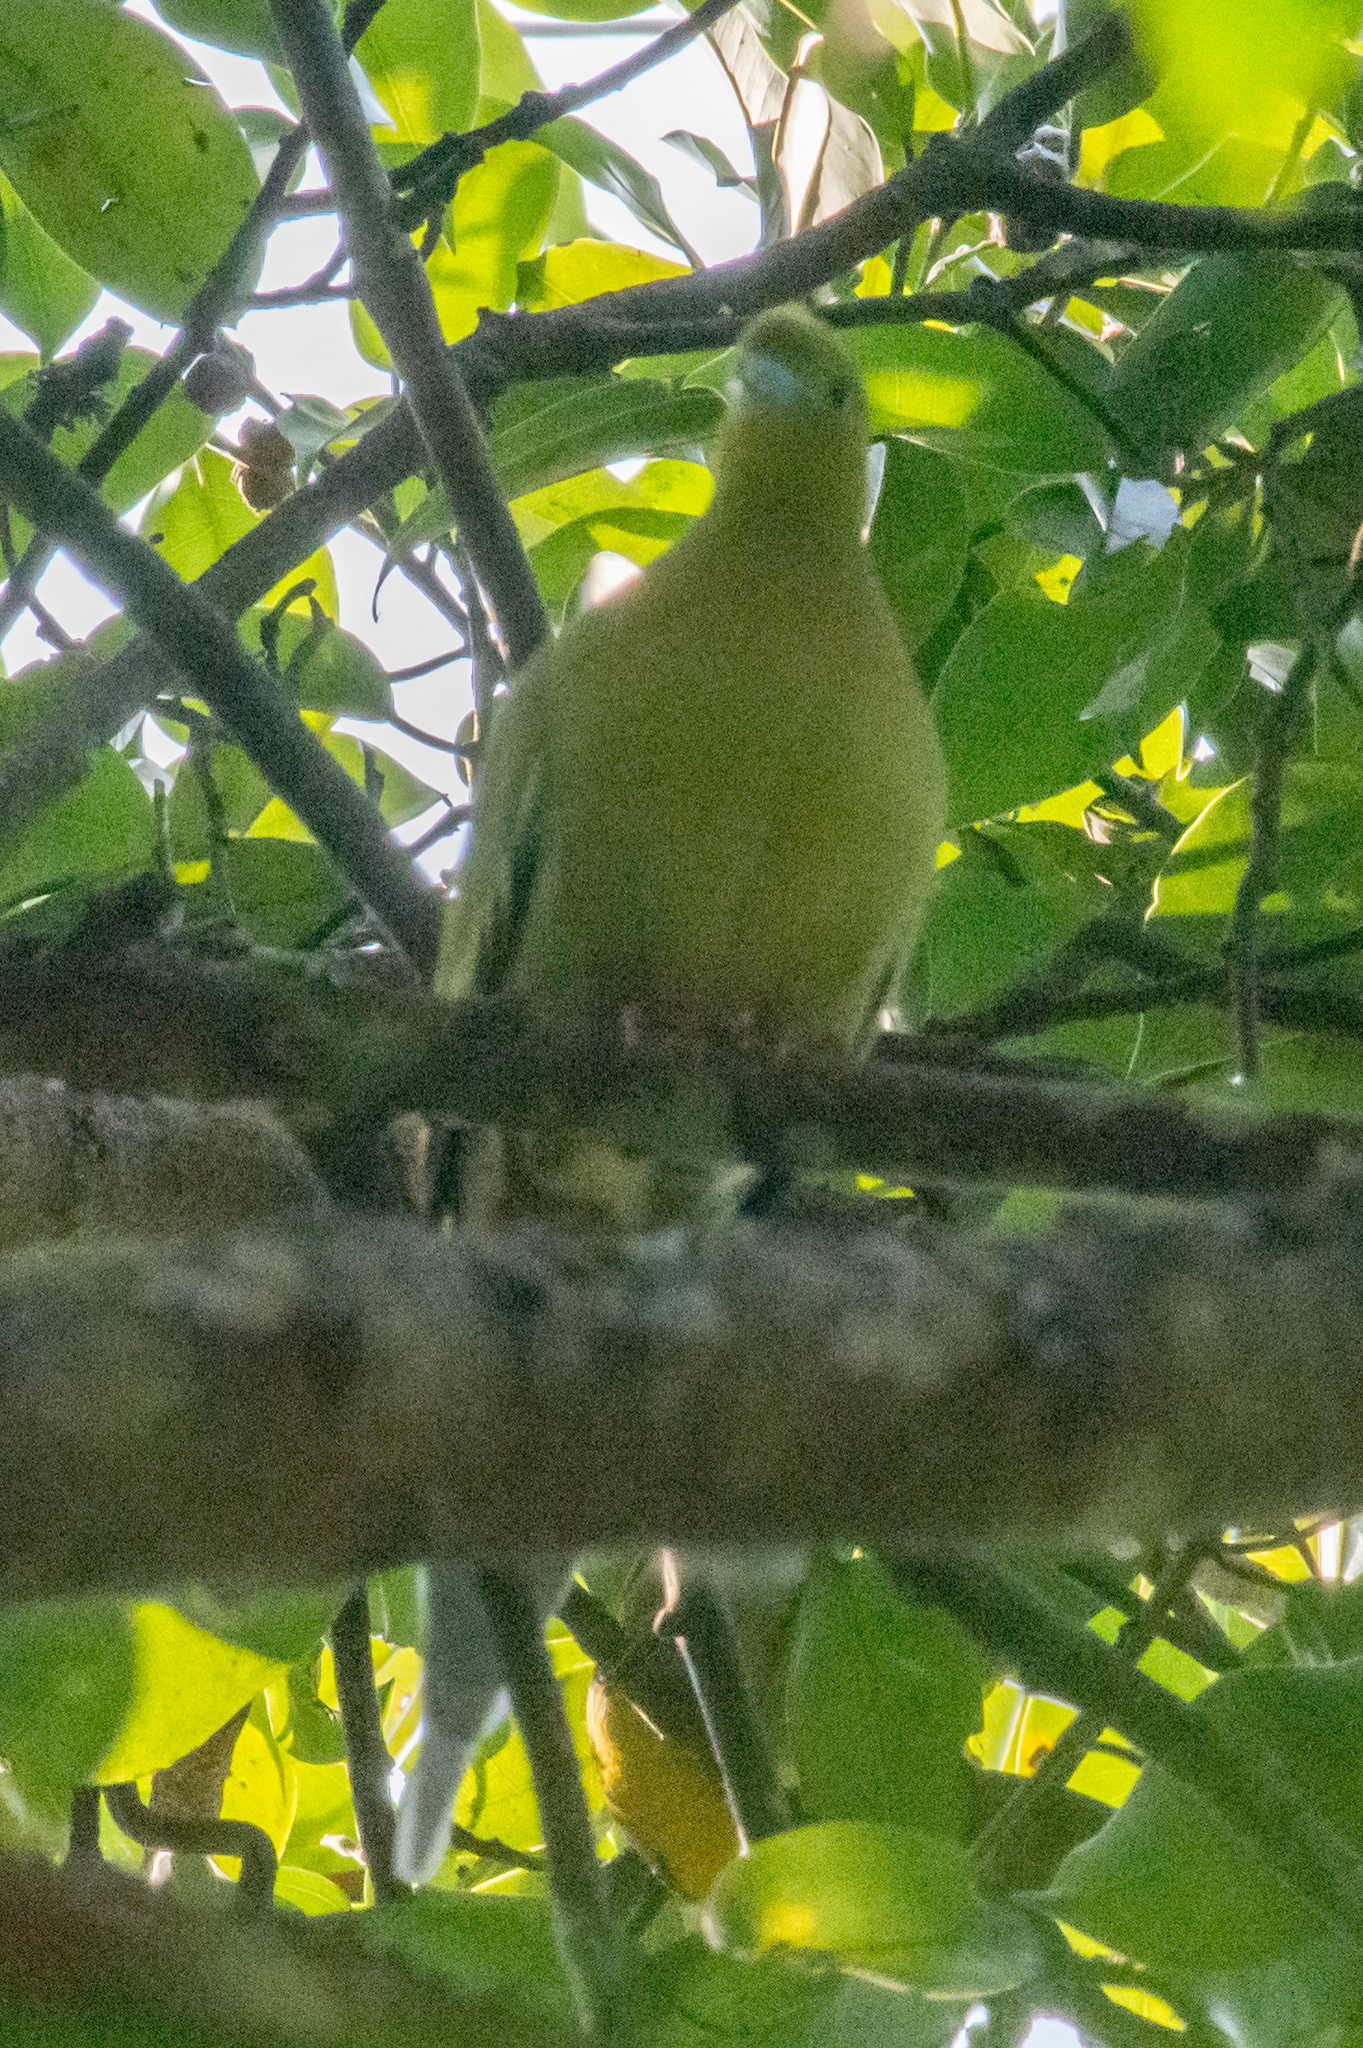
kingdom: Animalia
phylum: Chordata
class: Aves
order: Columbiformes
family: Columbidae
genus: Treron
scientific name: Treron apicauda
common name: Pin-tailed green pigeon
